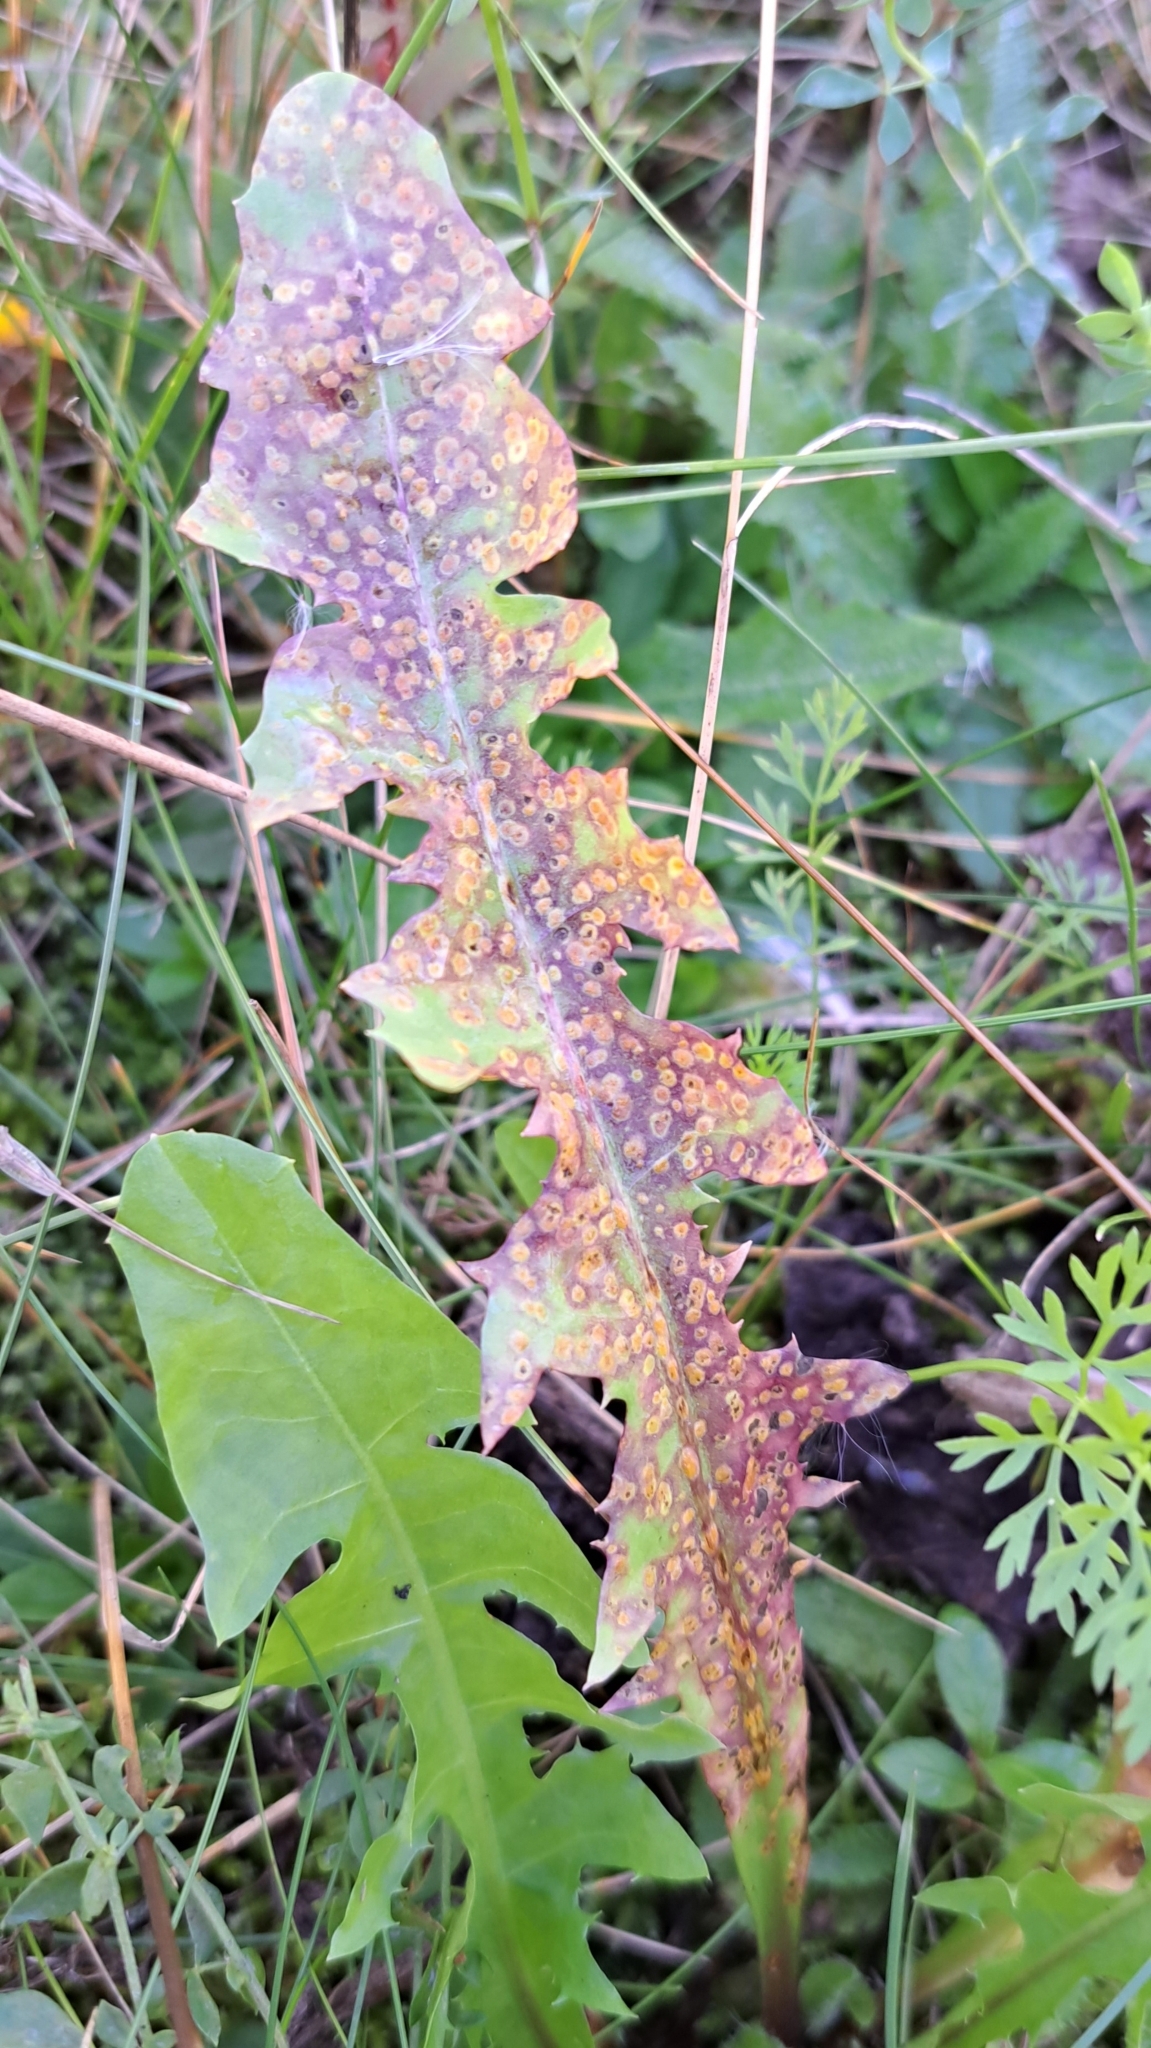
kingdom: Fungi
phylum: Basidiomycota
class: Pucciniomycetes
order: Pucciniales
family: Pucciniaceae
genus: Puccinia
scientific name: Puccinia dioicae
